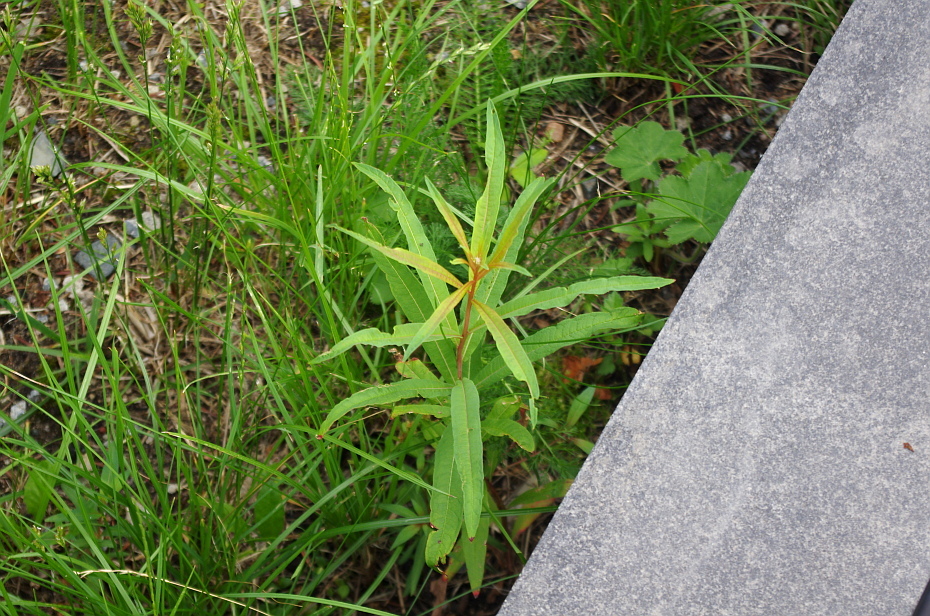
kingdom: Plantae
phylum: Tracheophyta
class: Magnoliopsida
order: Myrtales
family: Onagraceae
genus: Chamaenerion
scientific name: Chamaenerion angustifolium
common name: Fireweed
